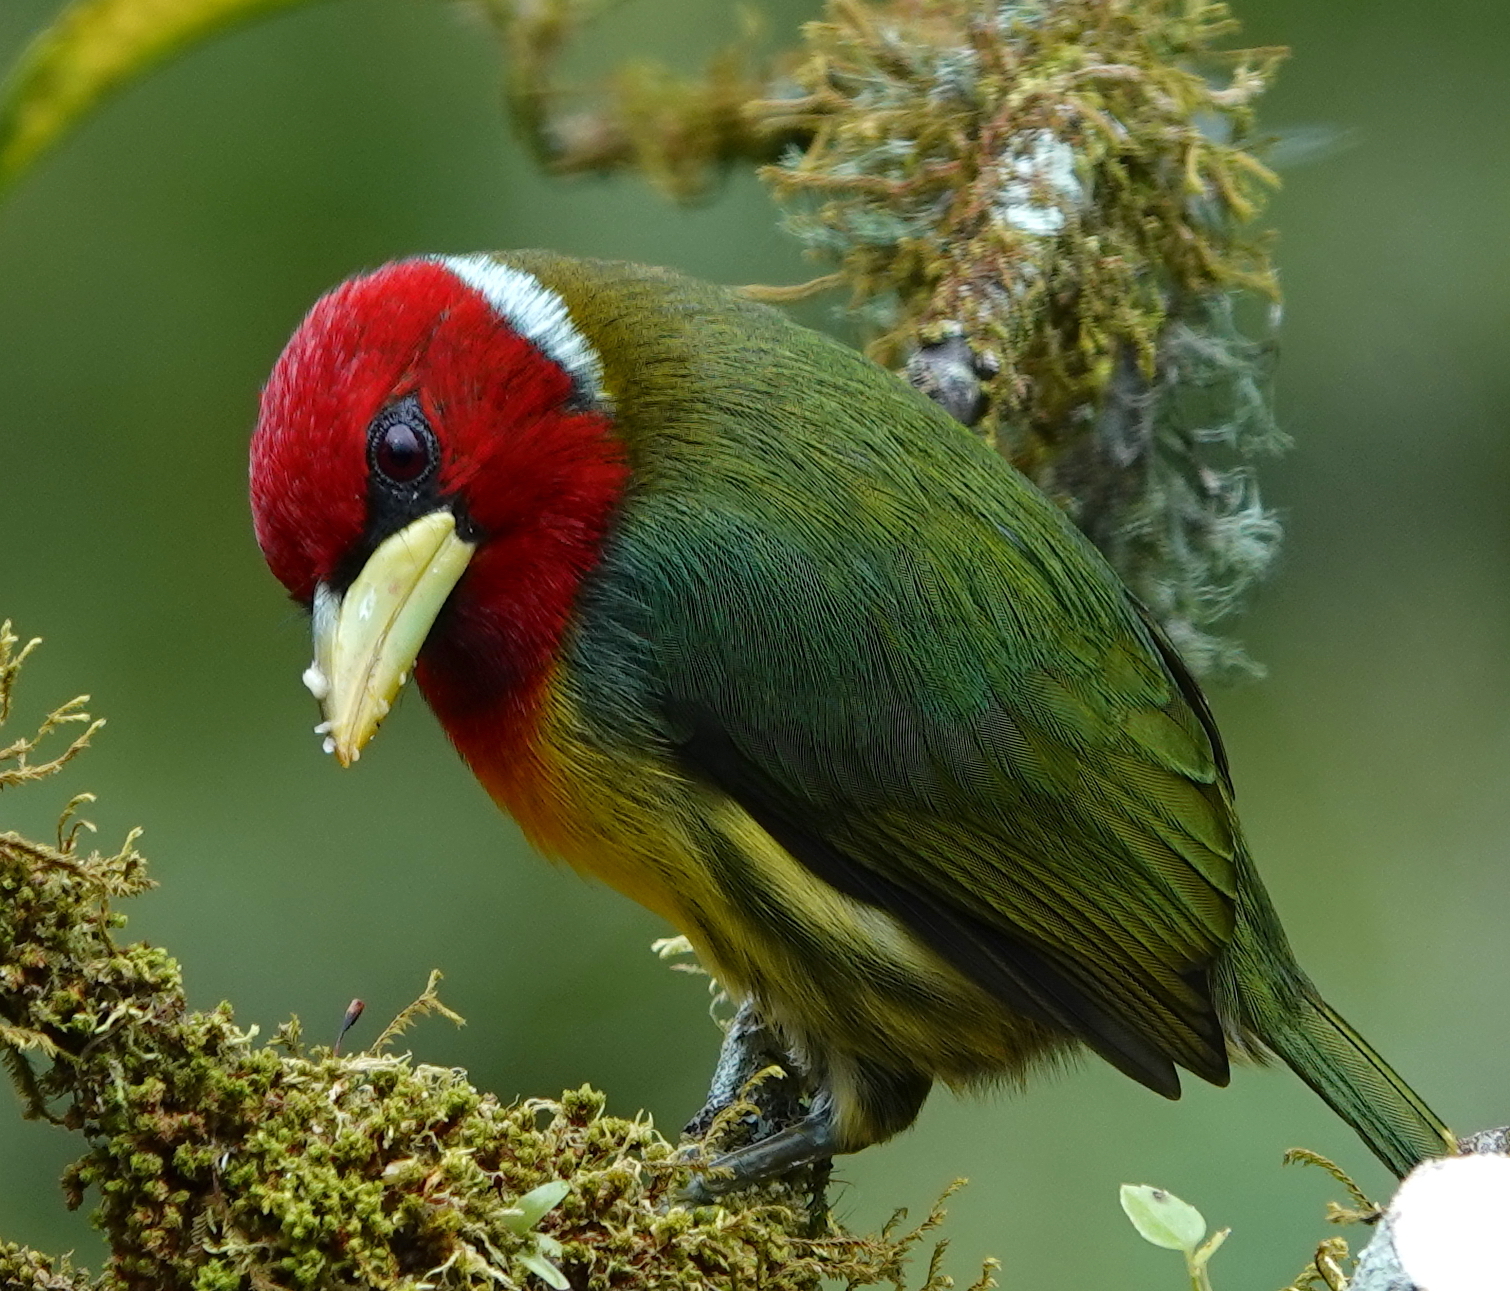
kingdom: Animalia
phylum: Chordata
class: Aves
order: Piciformes
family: Capitonidae
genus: Eubucco
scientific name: Eubucco bourcierii
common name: Red-headed barbet
